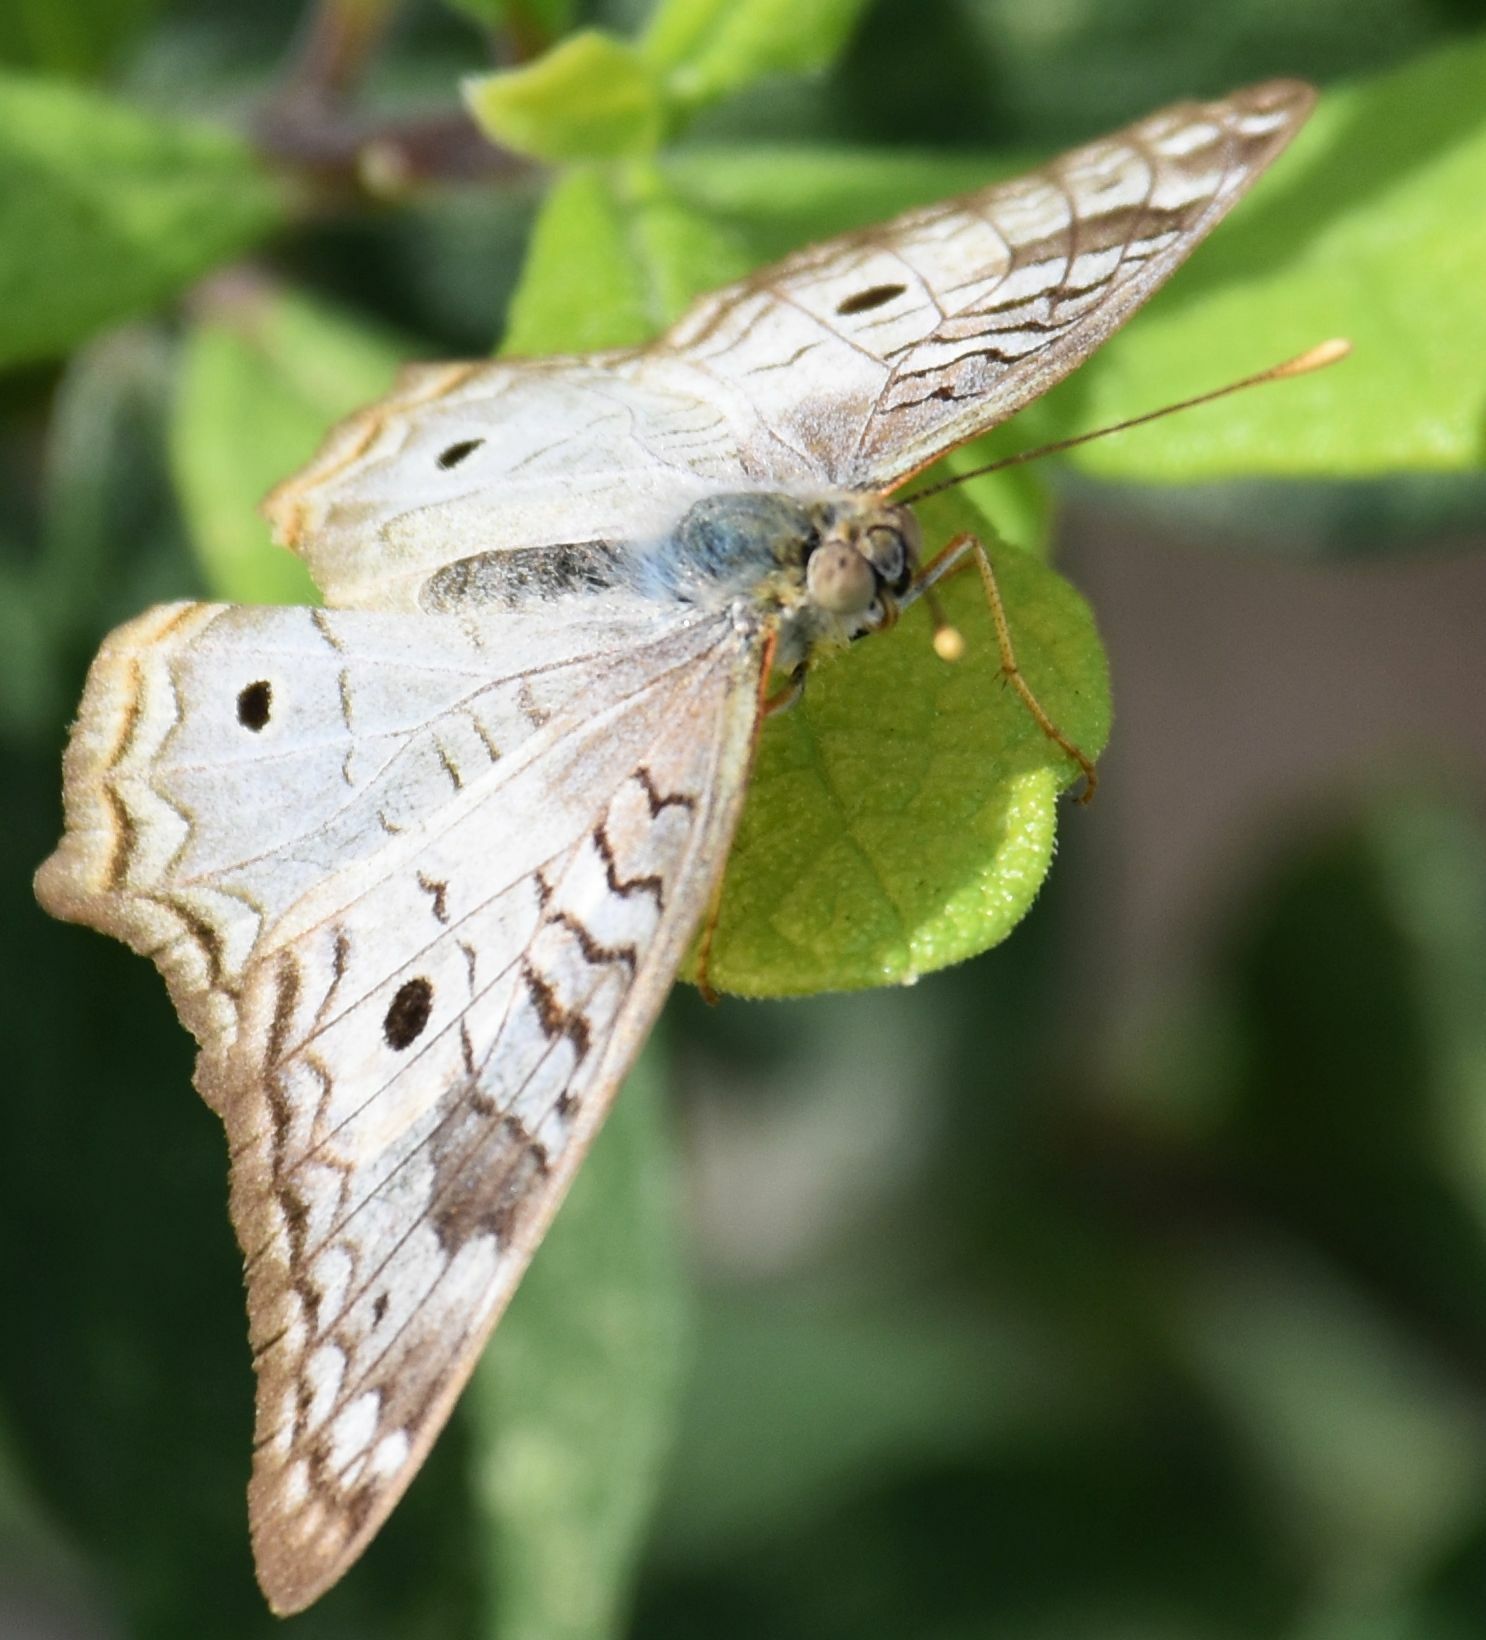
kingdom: Animalia
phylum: Arthropoda
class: Insecta
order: Lepidoptera
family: Nymphalidae
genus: Anartia
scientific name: Anartia jatrophae
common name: White peacock
